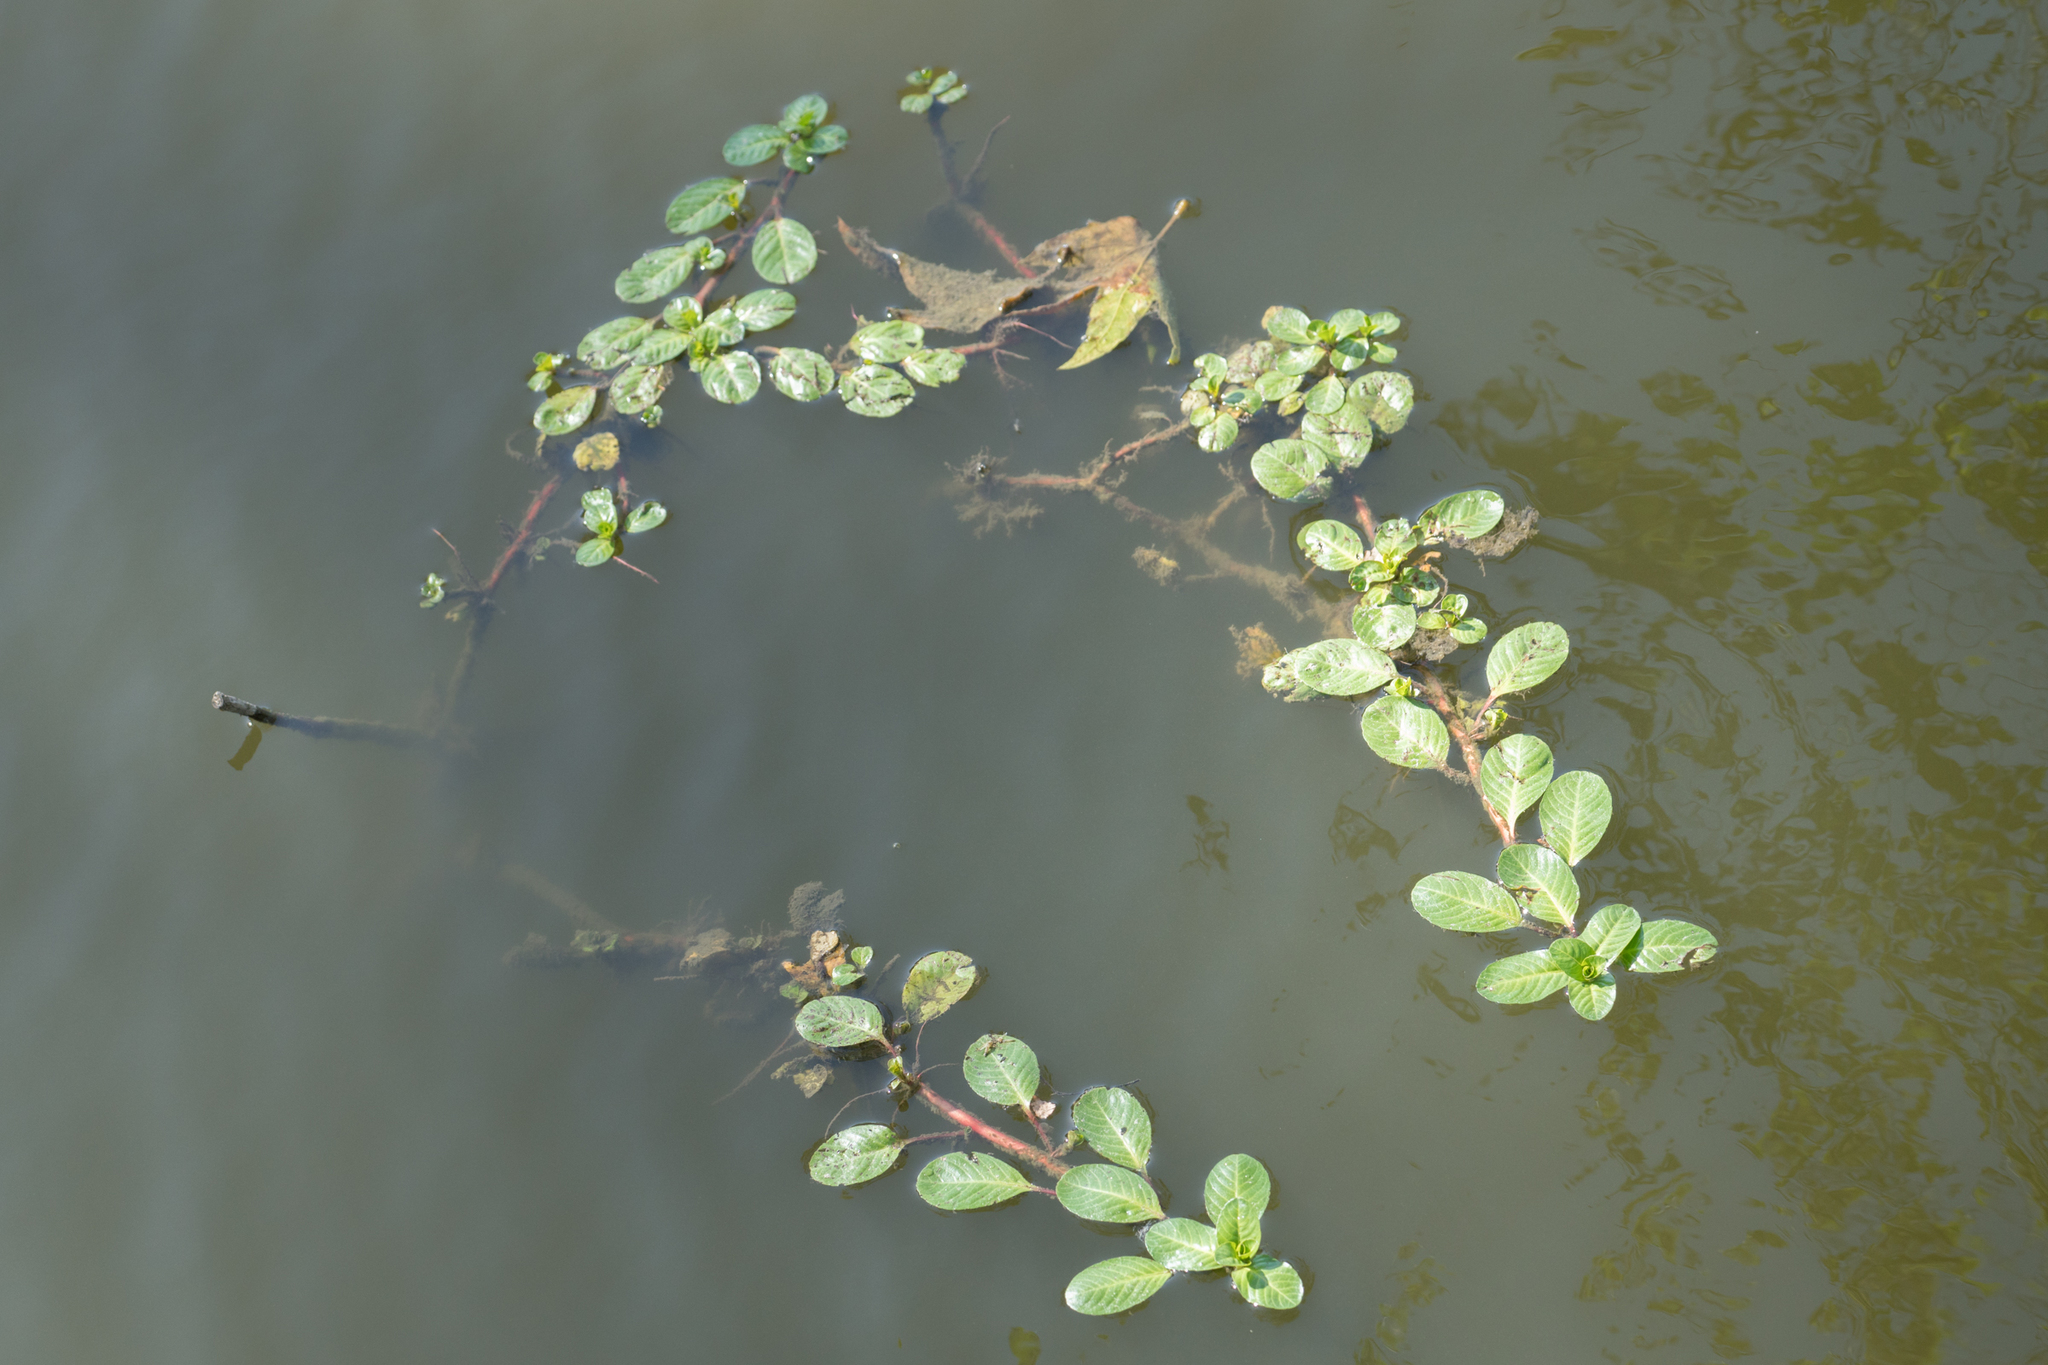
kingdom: Plantae
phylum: Tracheophyta
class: Magnoliopsida
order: Myrtales
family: Onagraceae
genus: Ludwigia
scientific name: Ludwigia peploides
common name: Floating primrose-willow
